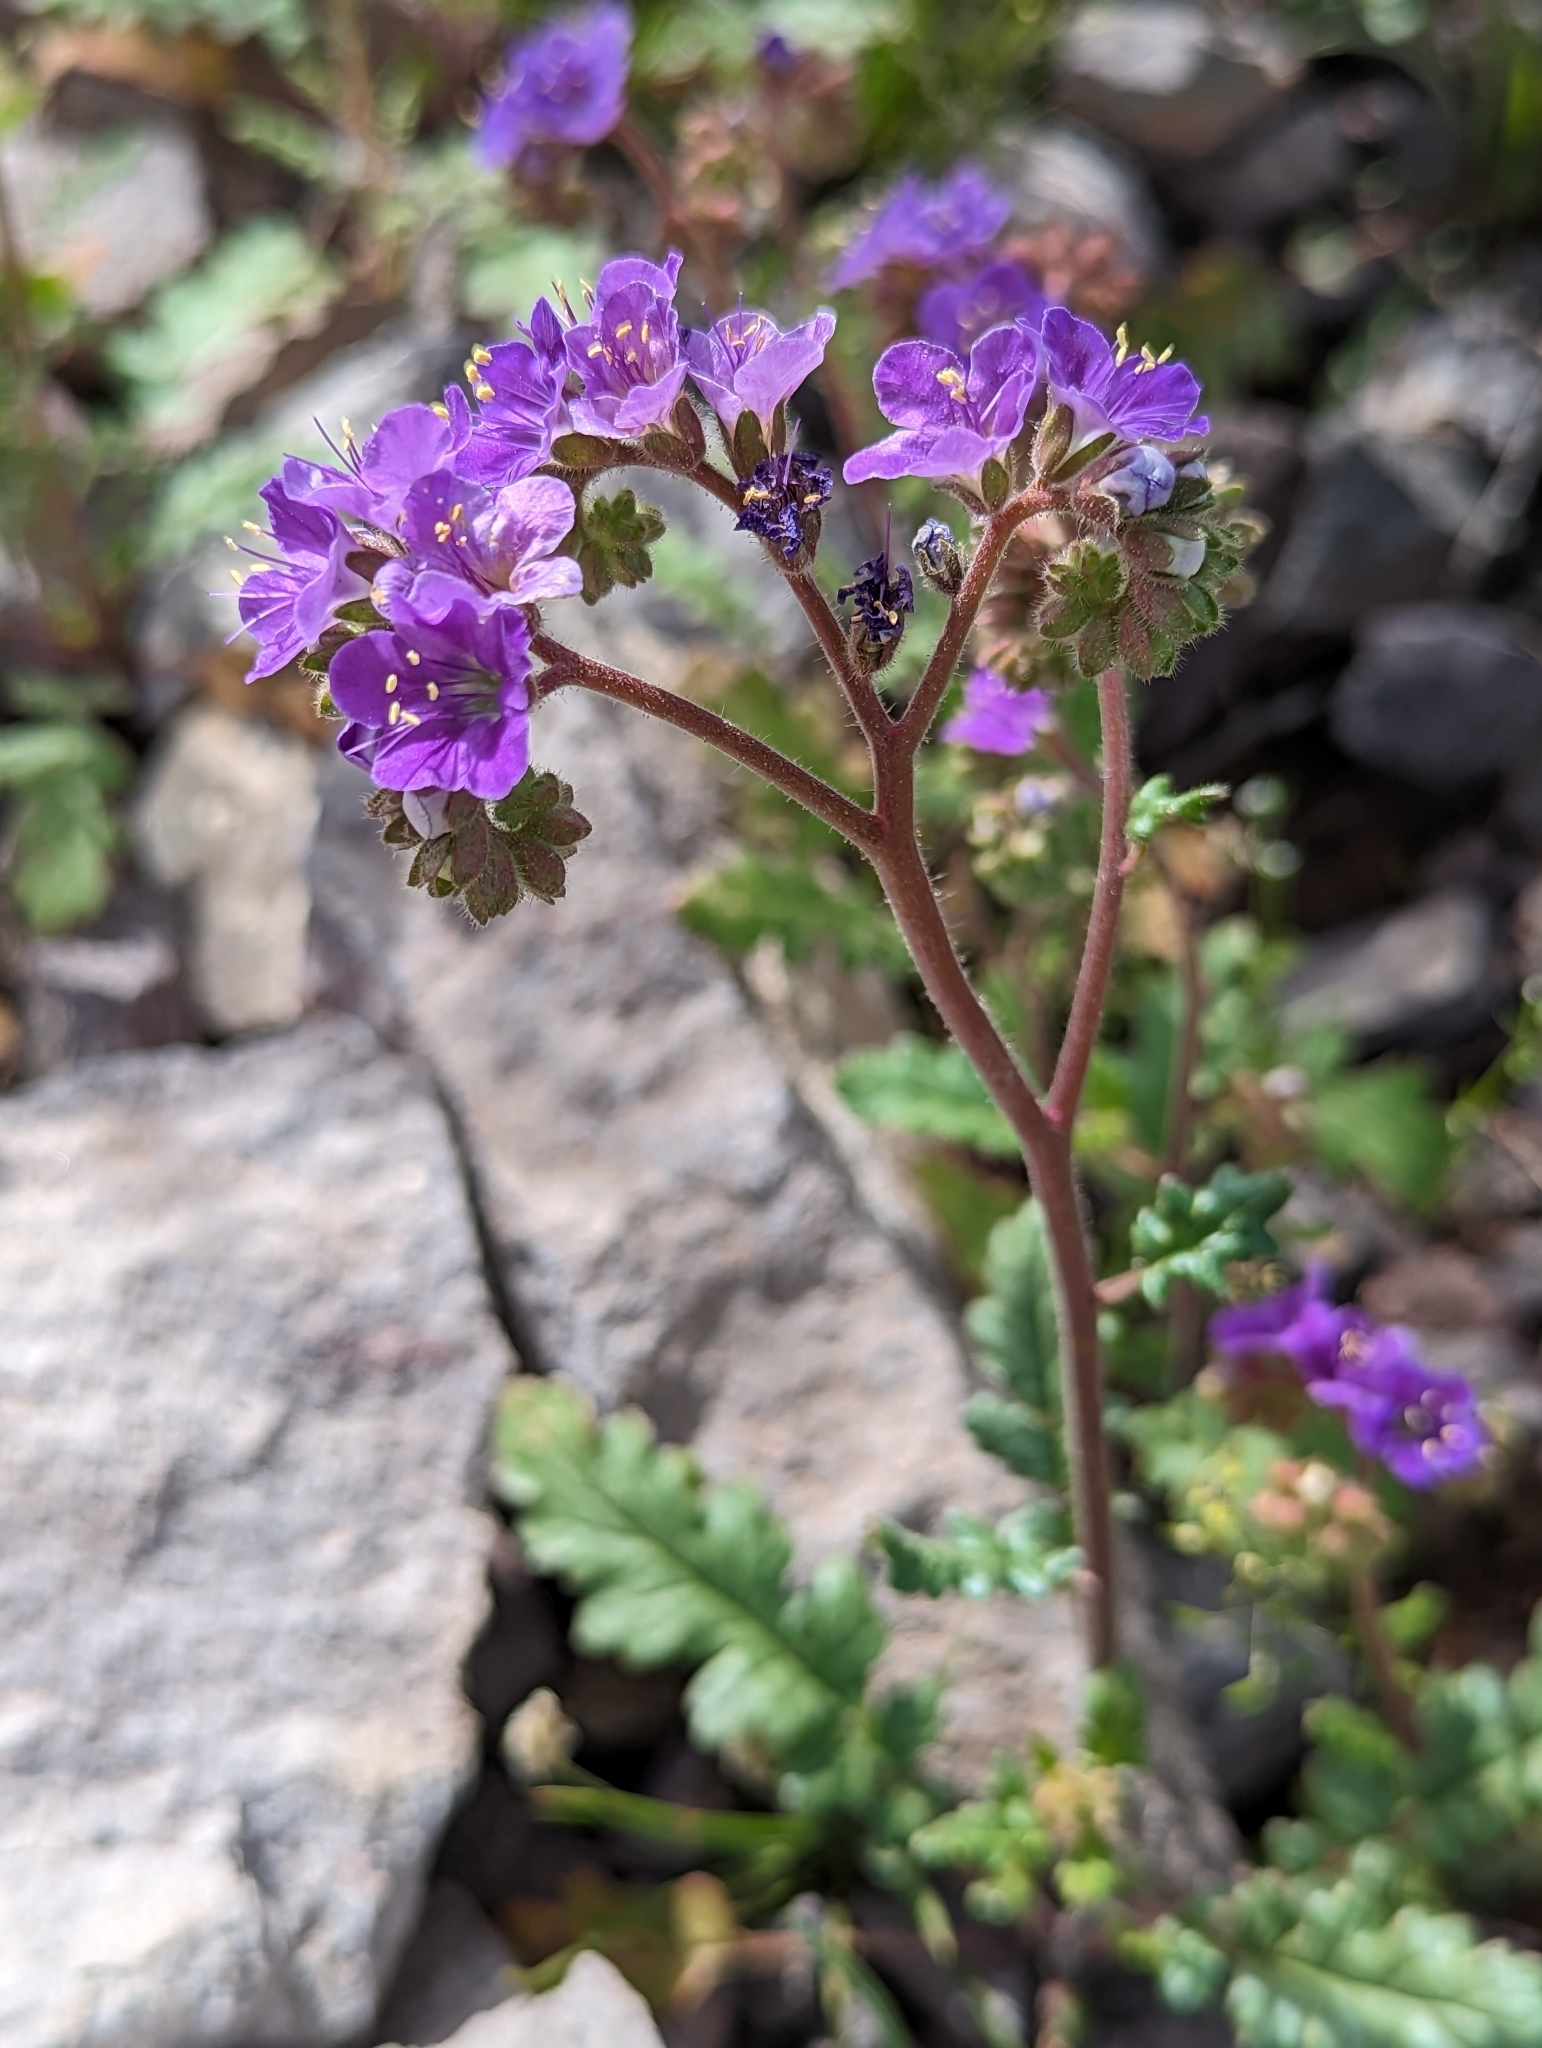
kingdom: Plantae
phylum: Tracheophyta
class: Magnoliopsida
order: Boraginales
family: Hydrophyllaceae
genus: Phacelia
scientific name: Phacelia crenulata
